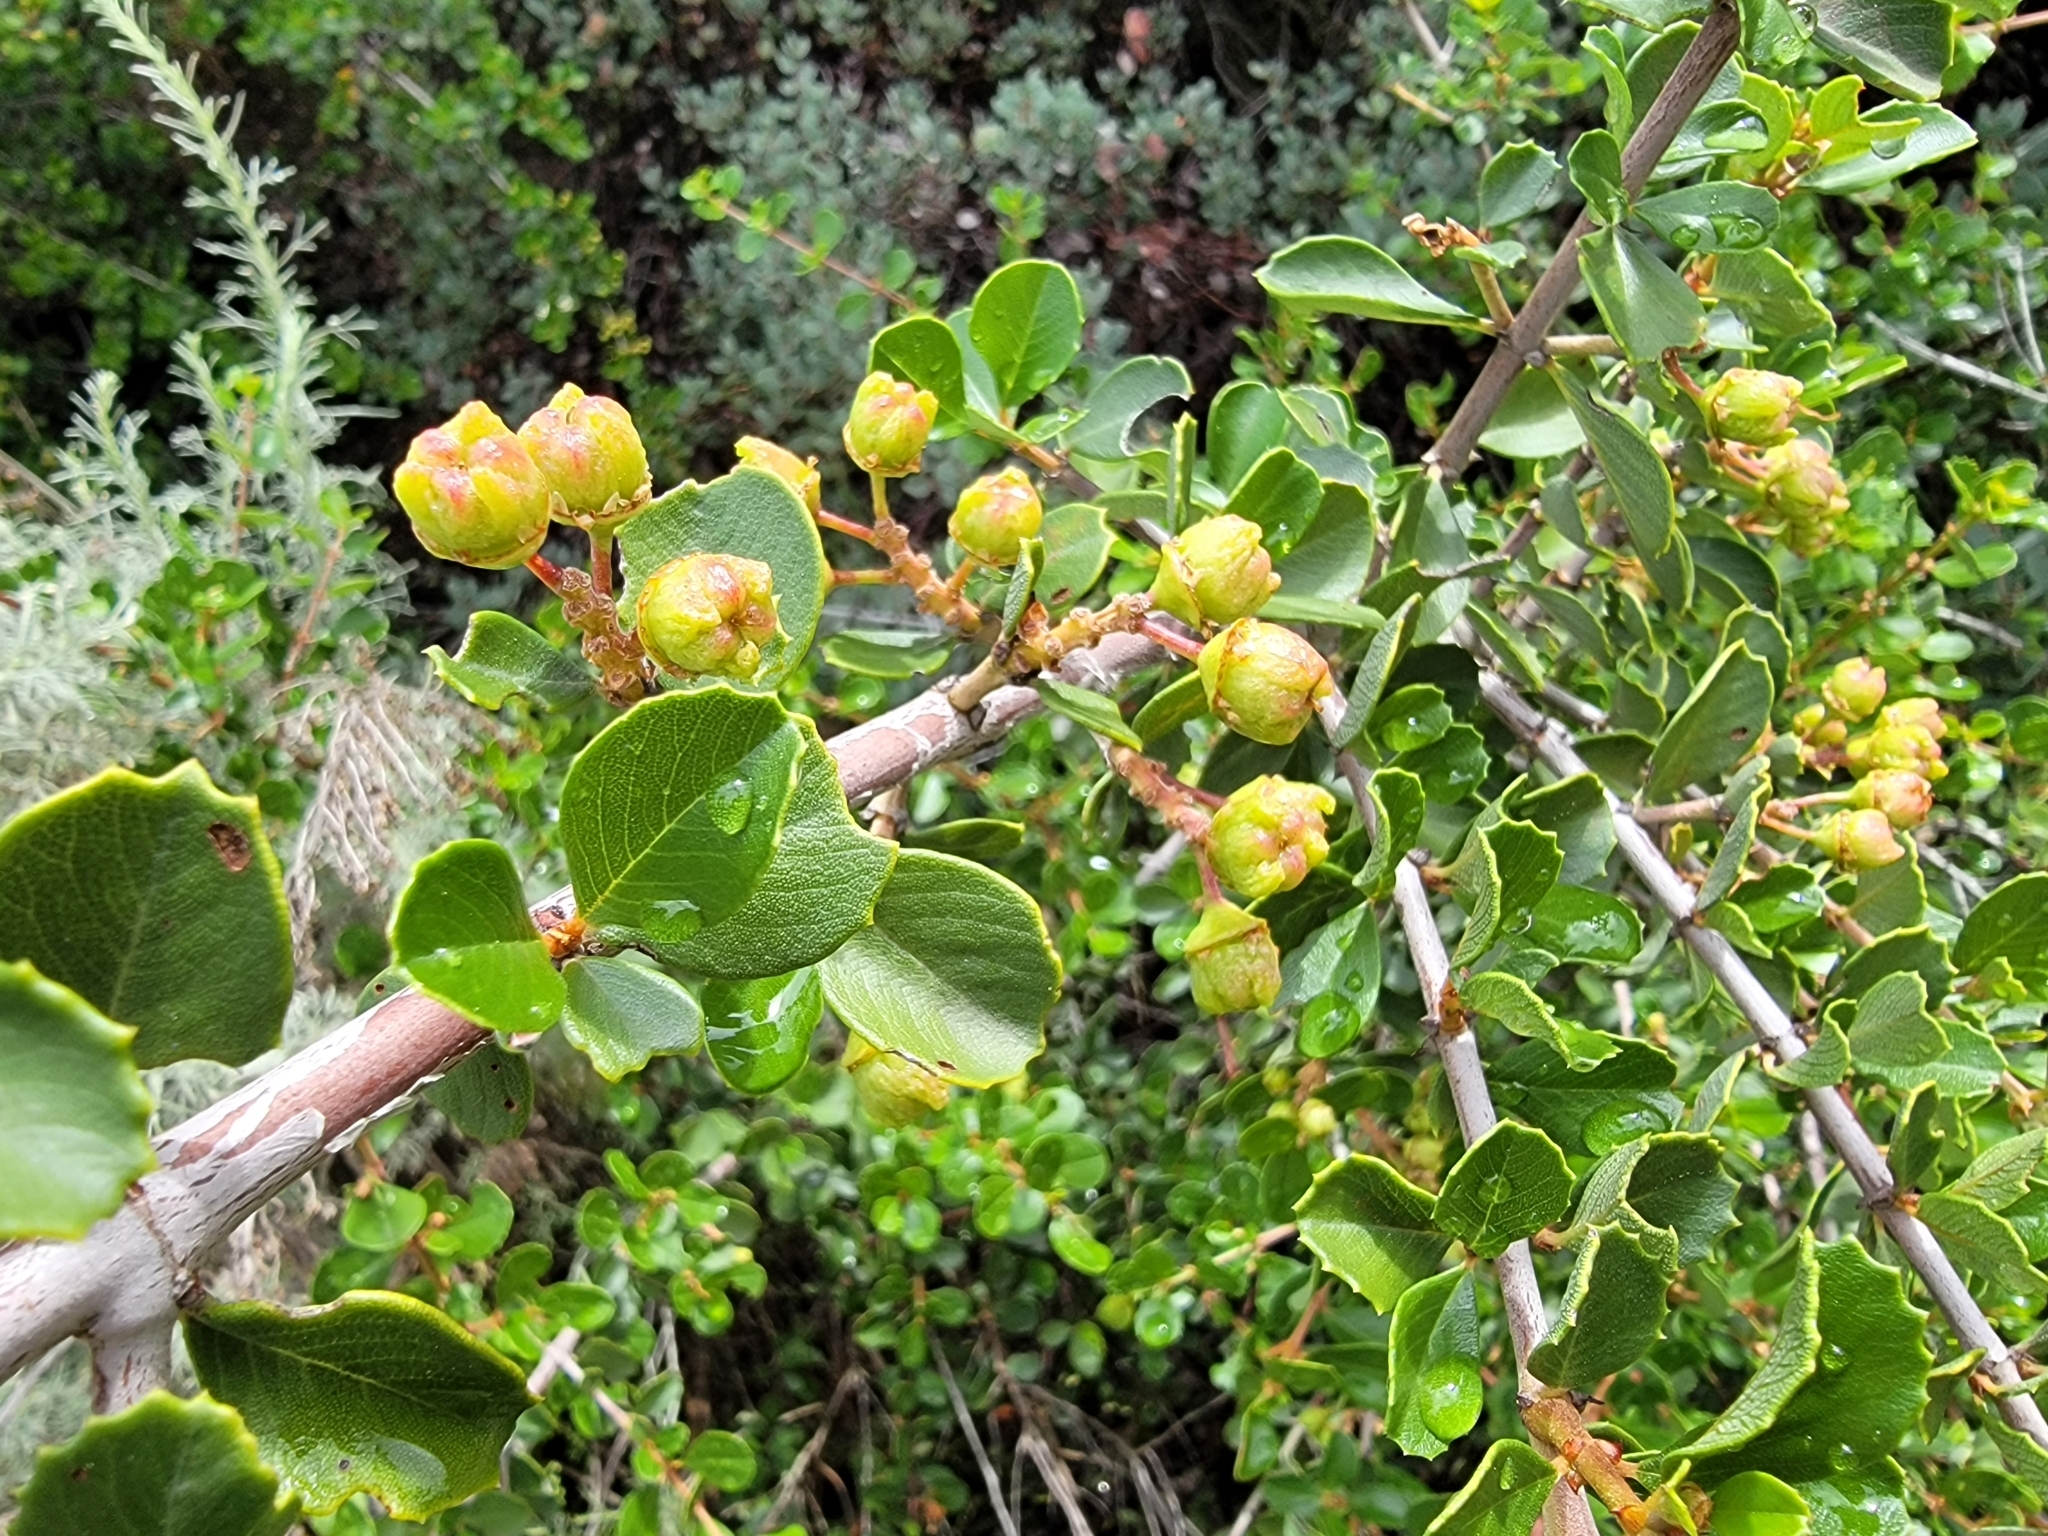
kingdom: Plantae
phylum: Tracheophyta
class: Magnoliopsida
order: Rosales
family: Rhamnaceae
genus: Ceanothus
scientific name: Ceanothus ferrisiae
